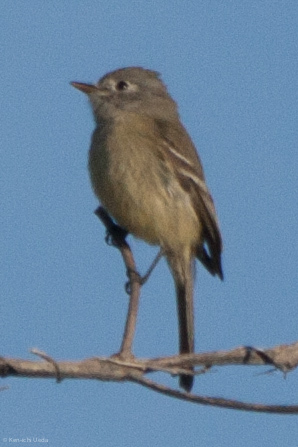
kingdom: Animalia
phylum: Chordata
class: Aves
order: Passeriformes
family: Tyrannidae
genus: Empidonax
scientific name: Empidonax
